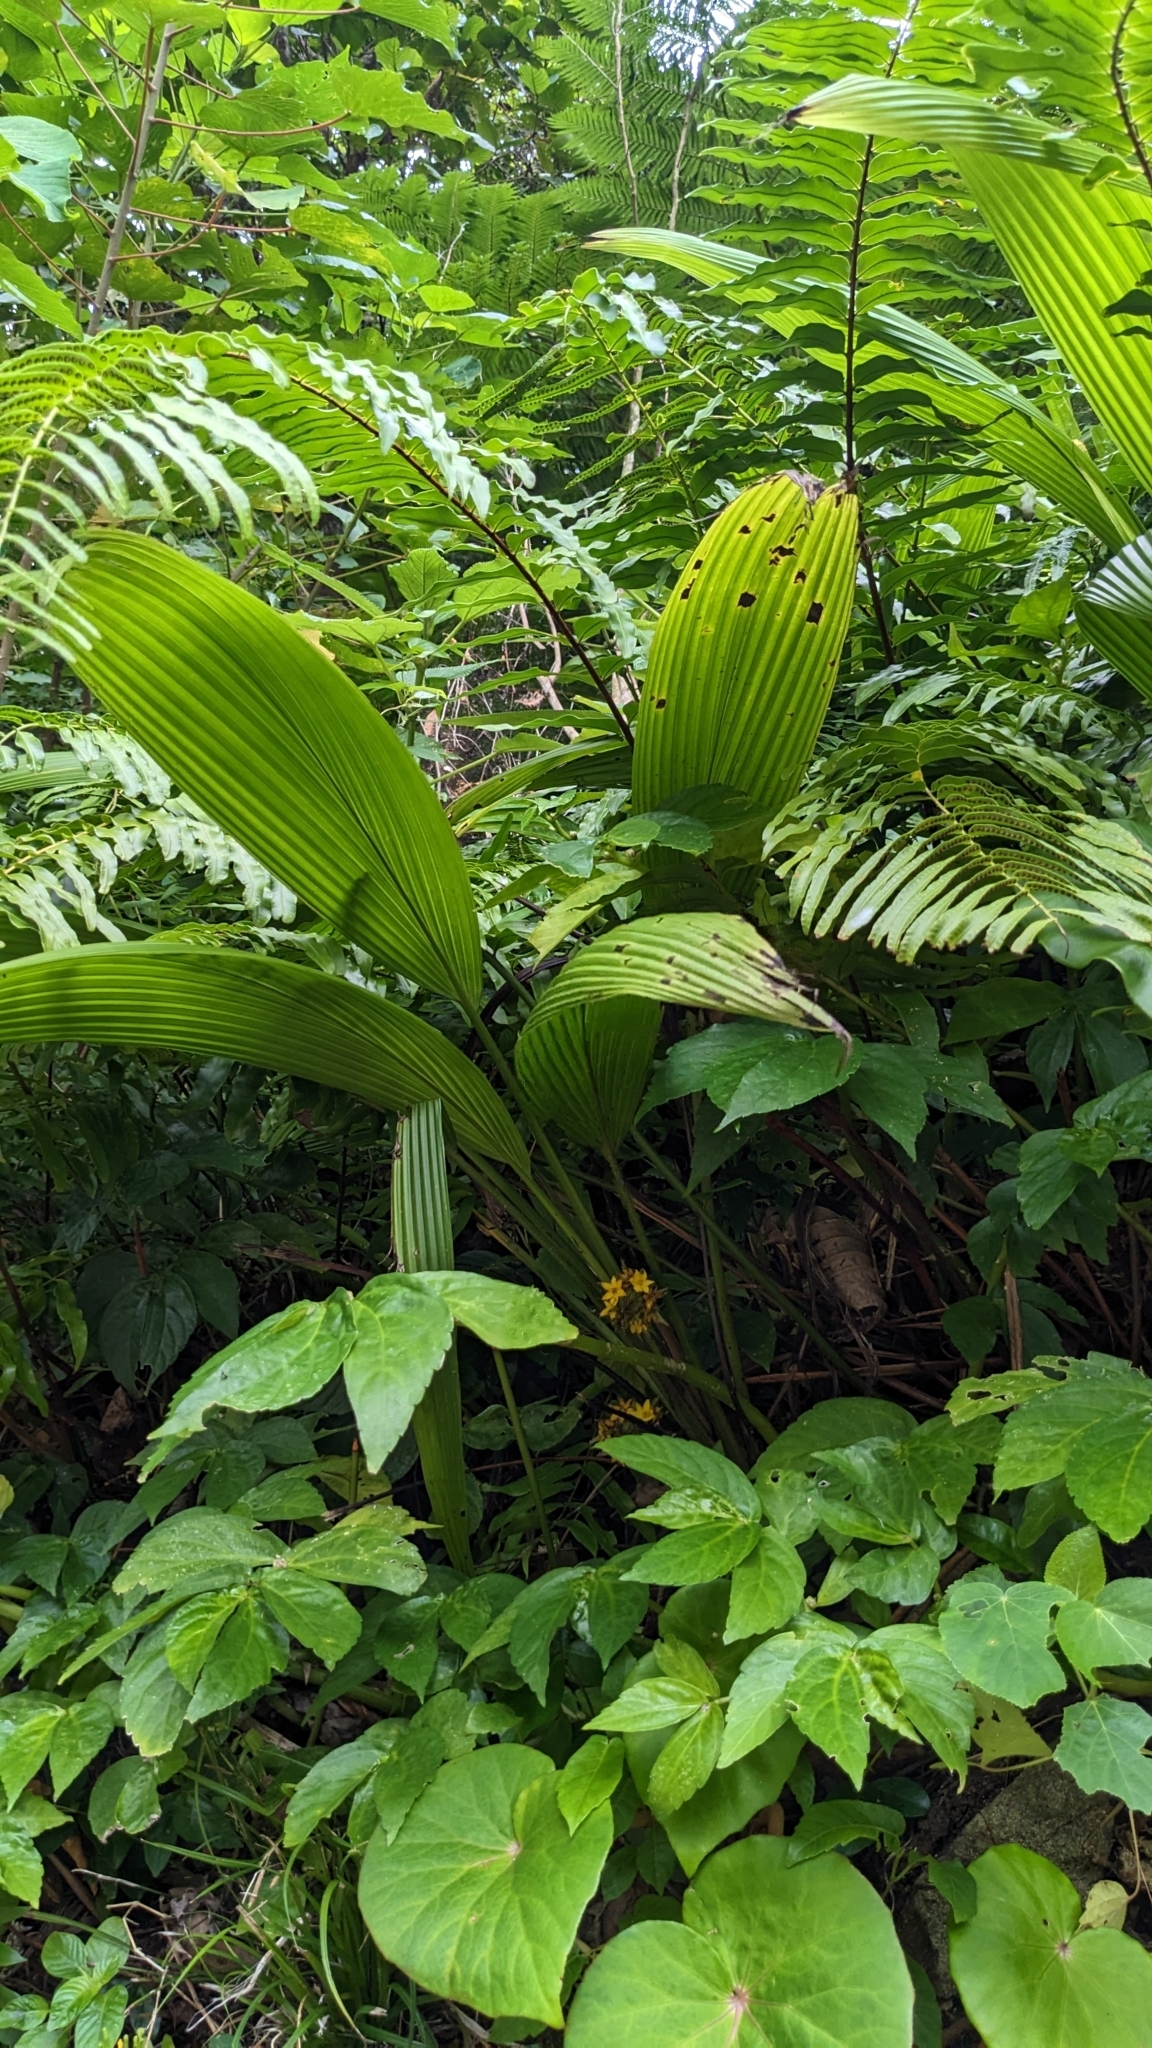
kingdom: Plantae
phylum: Tracheophyta
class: Liliopsida
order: Asparagales
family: Hypoxidaceae
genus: Curculigo
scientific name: Curculigo capitulata
